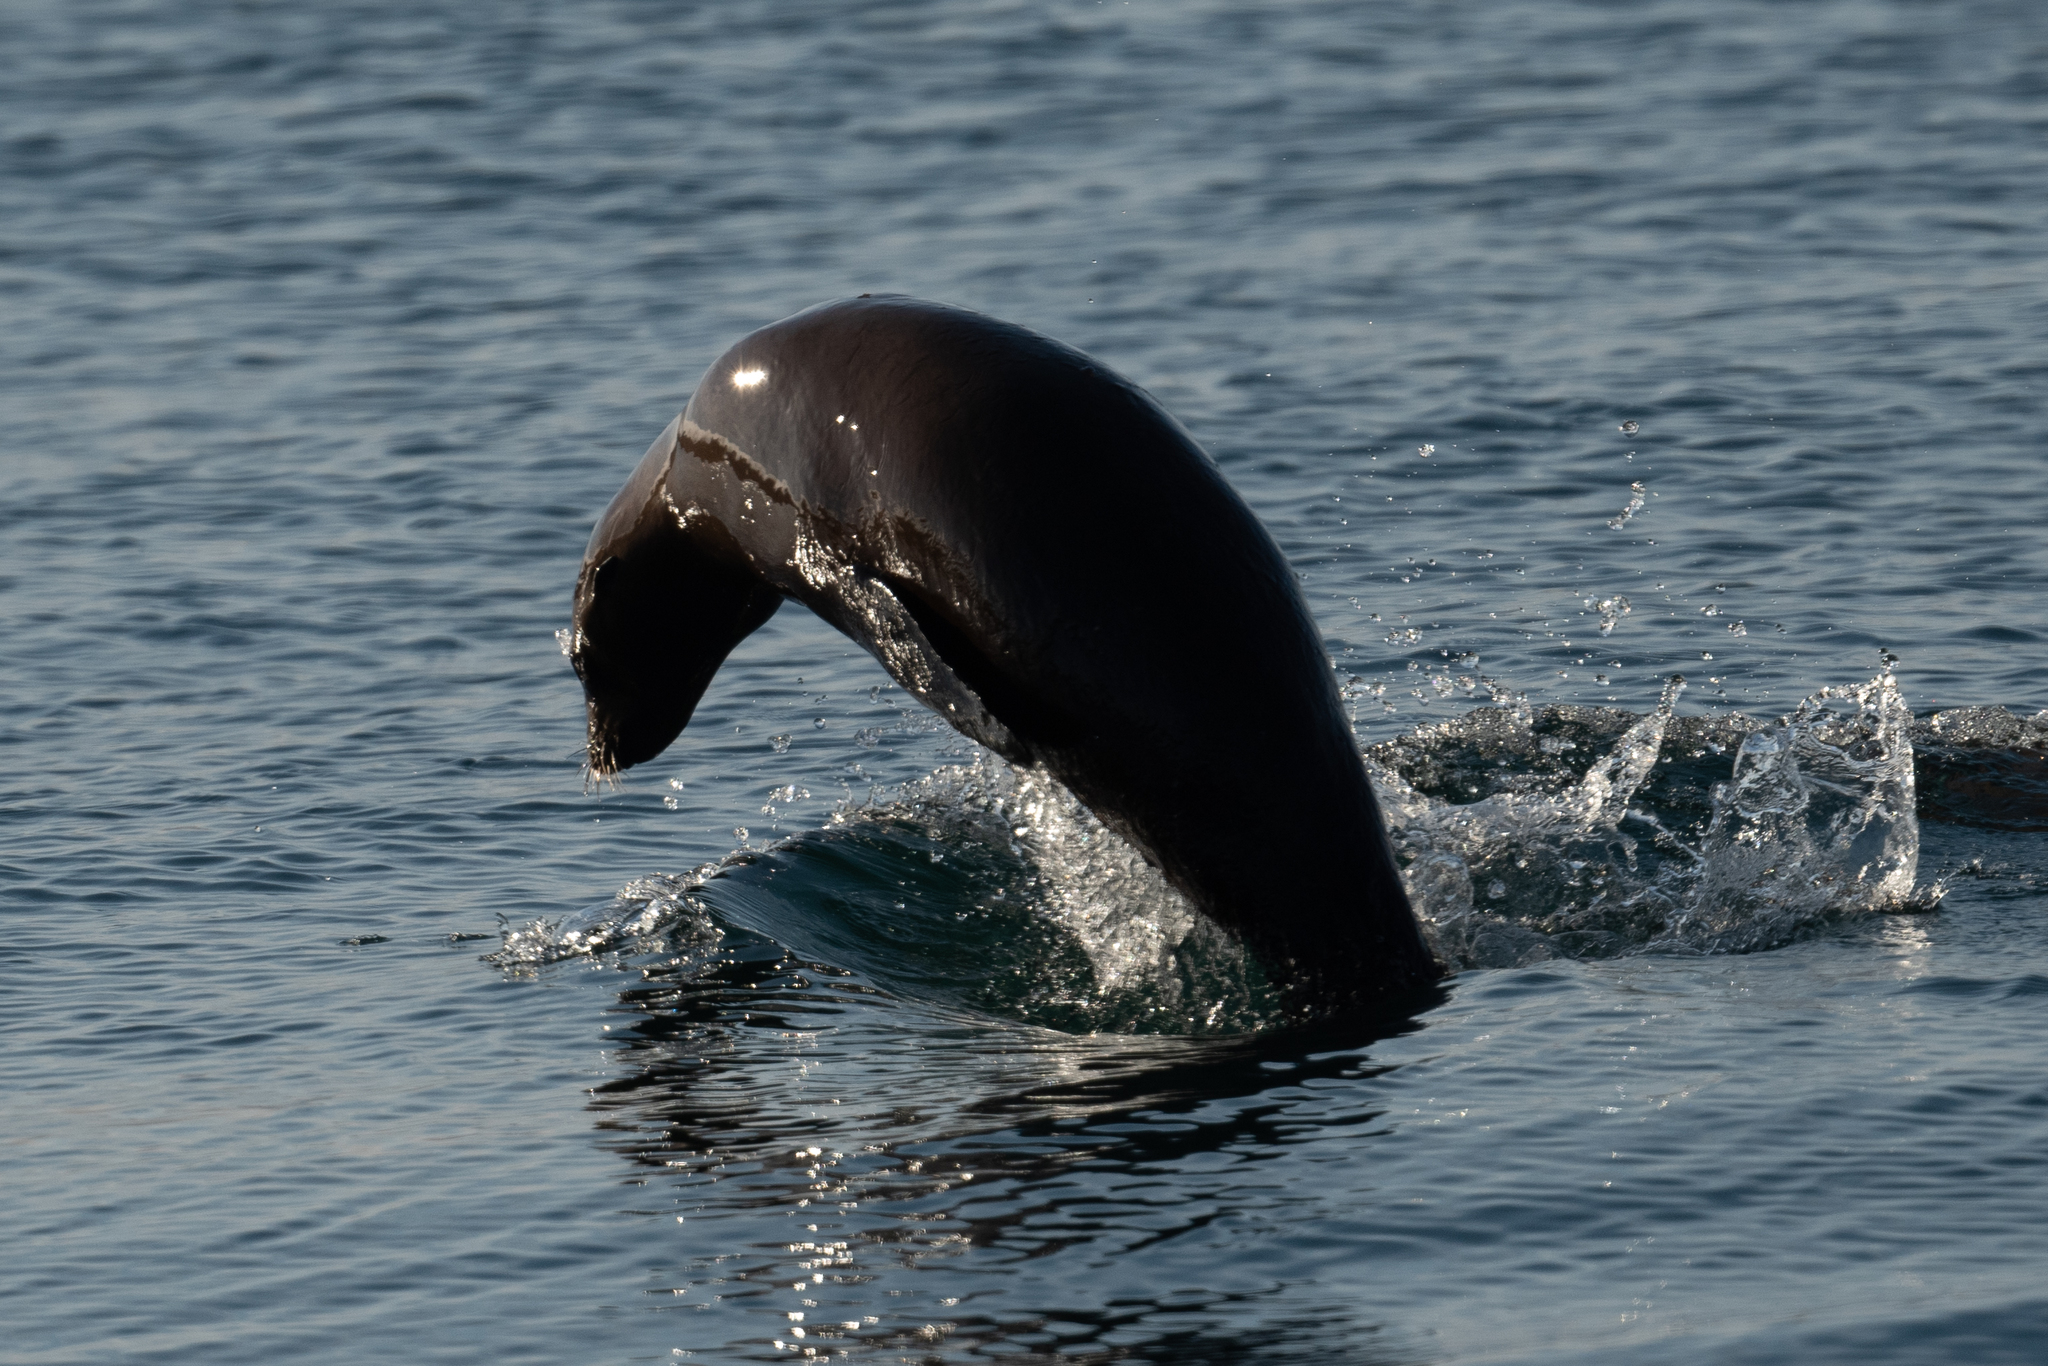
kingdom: Animalia
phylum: Chordata
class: Mammalia
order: Carnivora
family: Otariidae
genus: Zalophus
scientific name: Zalophus californianus
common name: California sea lion
